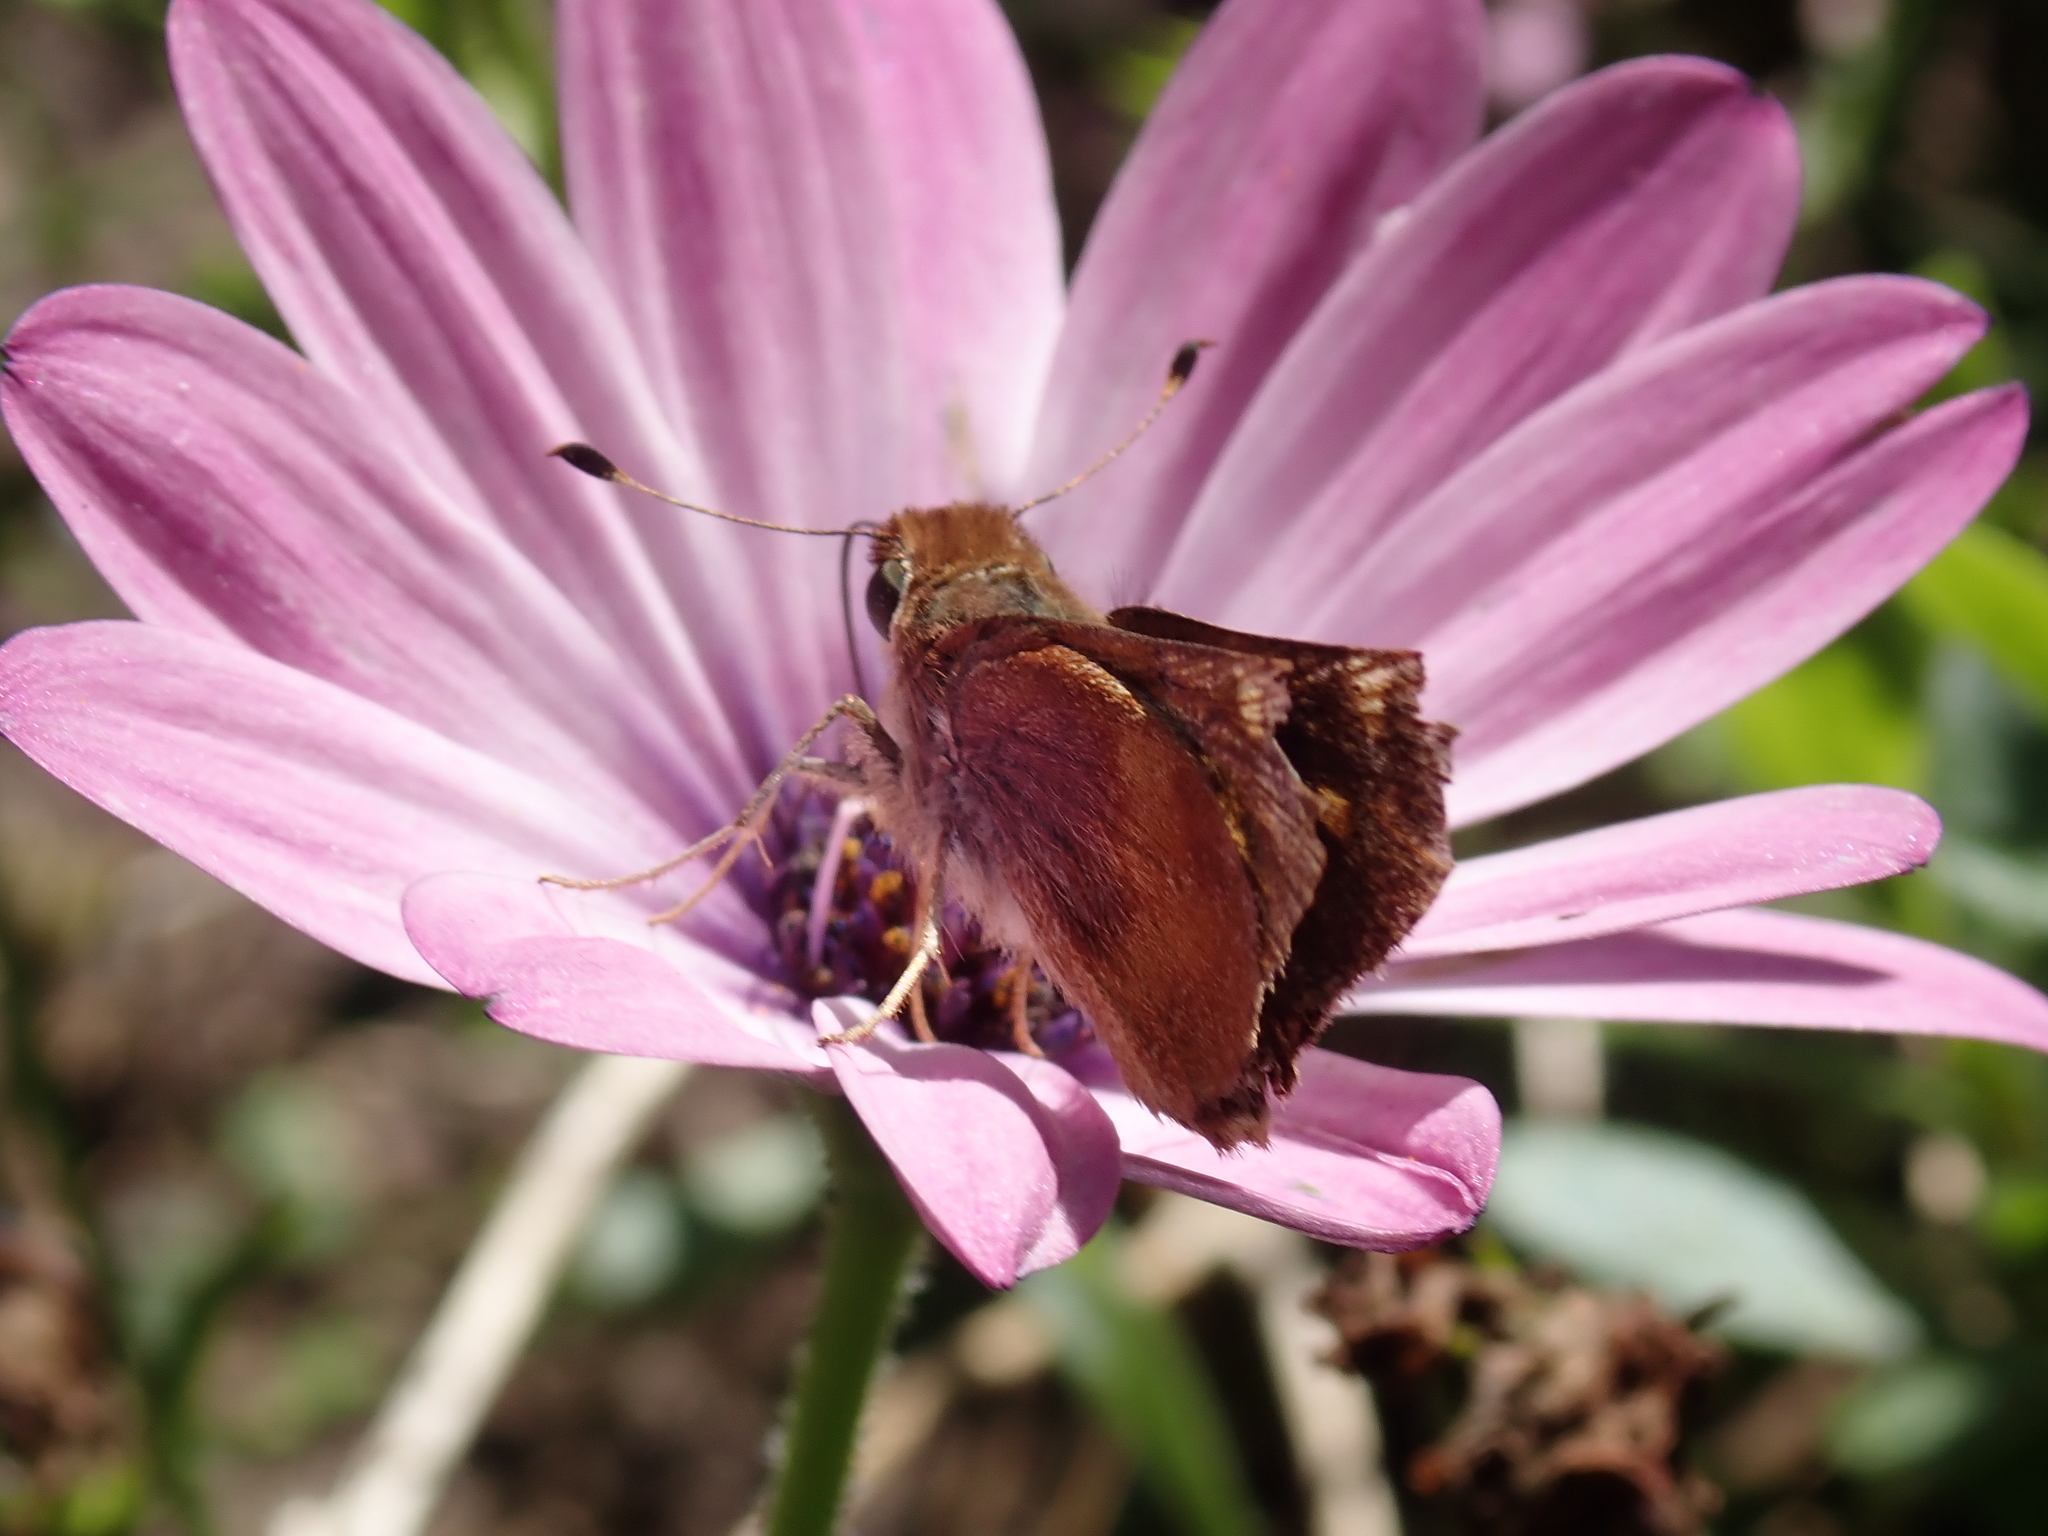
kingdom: Animalia
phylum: Arthropoda
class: Insecta
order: Lepidoptera
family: Hesperiidae
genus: Lon
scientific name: Lon melane
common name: Umber skipper
